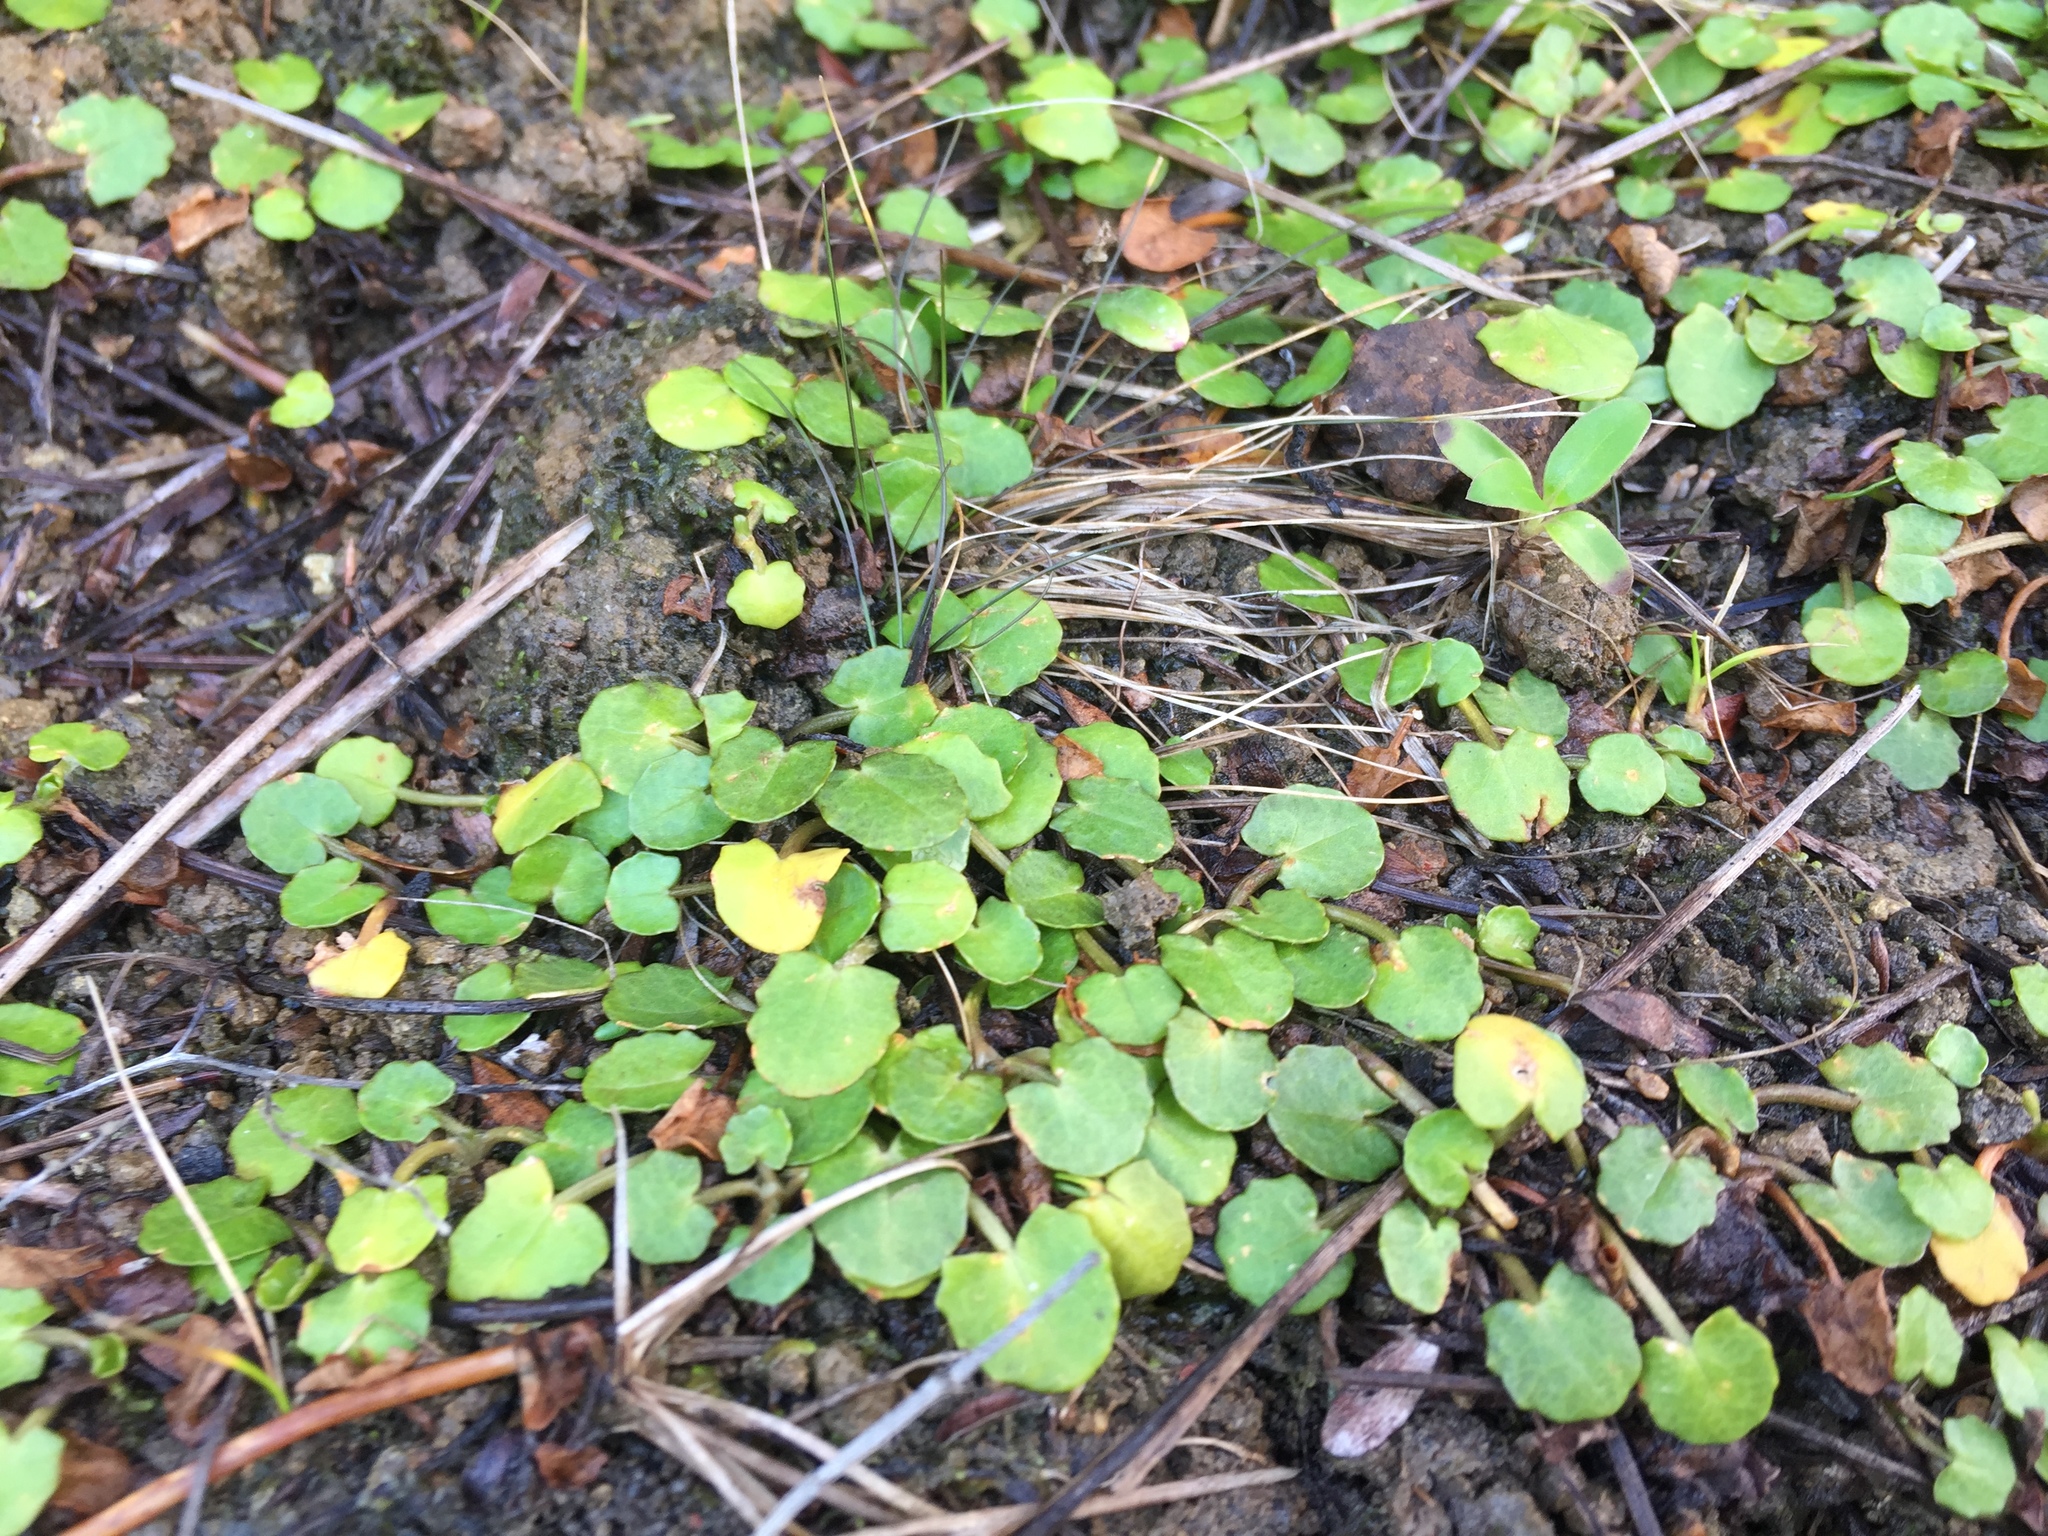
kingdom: Plantae
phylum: Tracheophyta
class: Magnoliopsida
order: Apiales
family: Apiaceae
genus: Centella
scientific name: Centella uniflora
